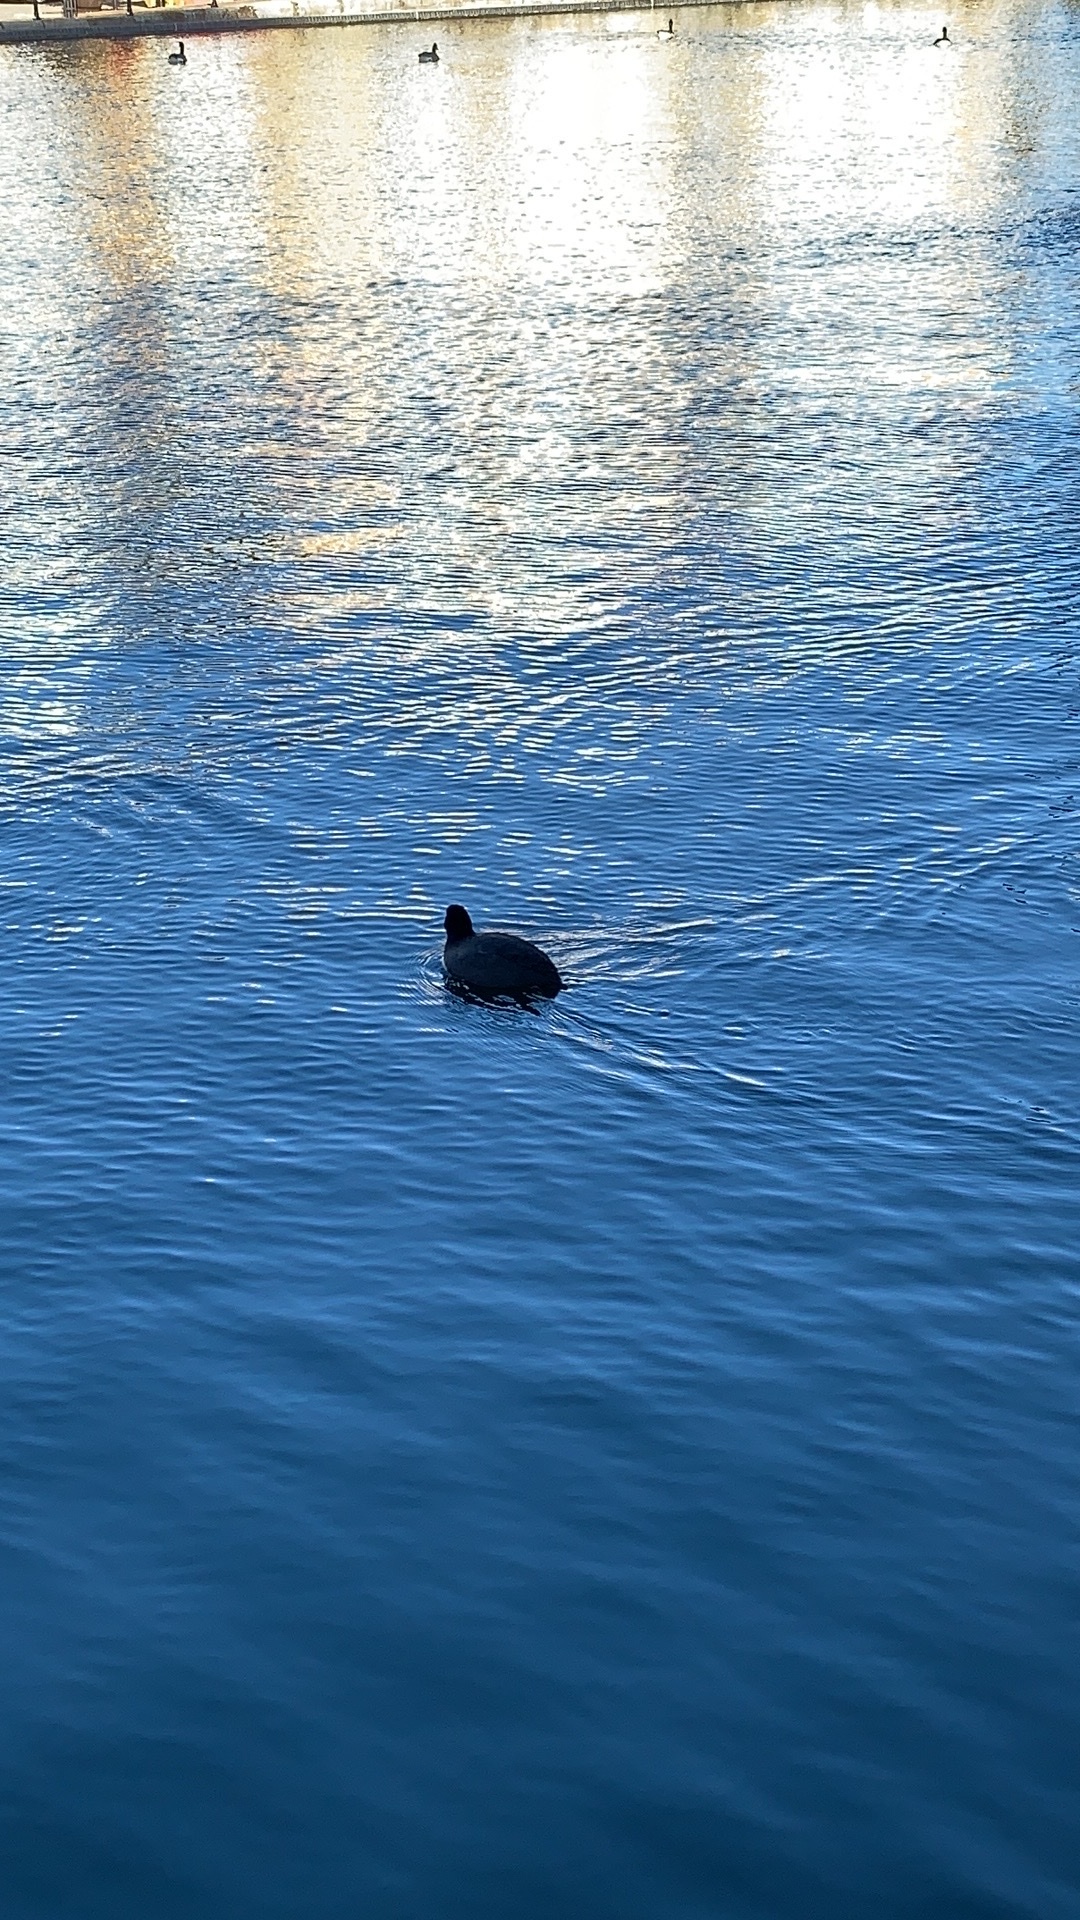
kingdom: Animalia
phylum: Chordata
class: Aves
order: Gruiformes
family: Rallidae
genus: Fulica
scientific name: Fulica atra
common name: Eurasian coot
